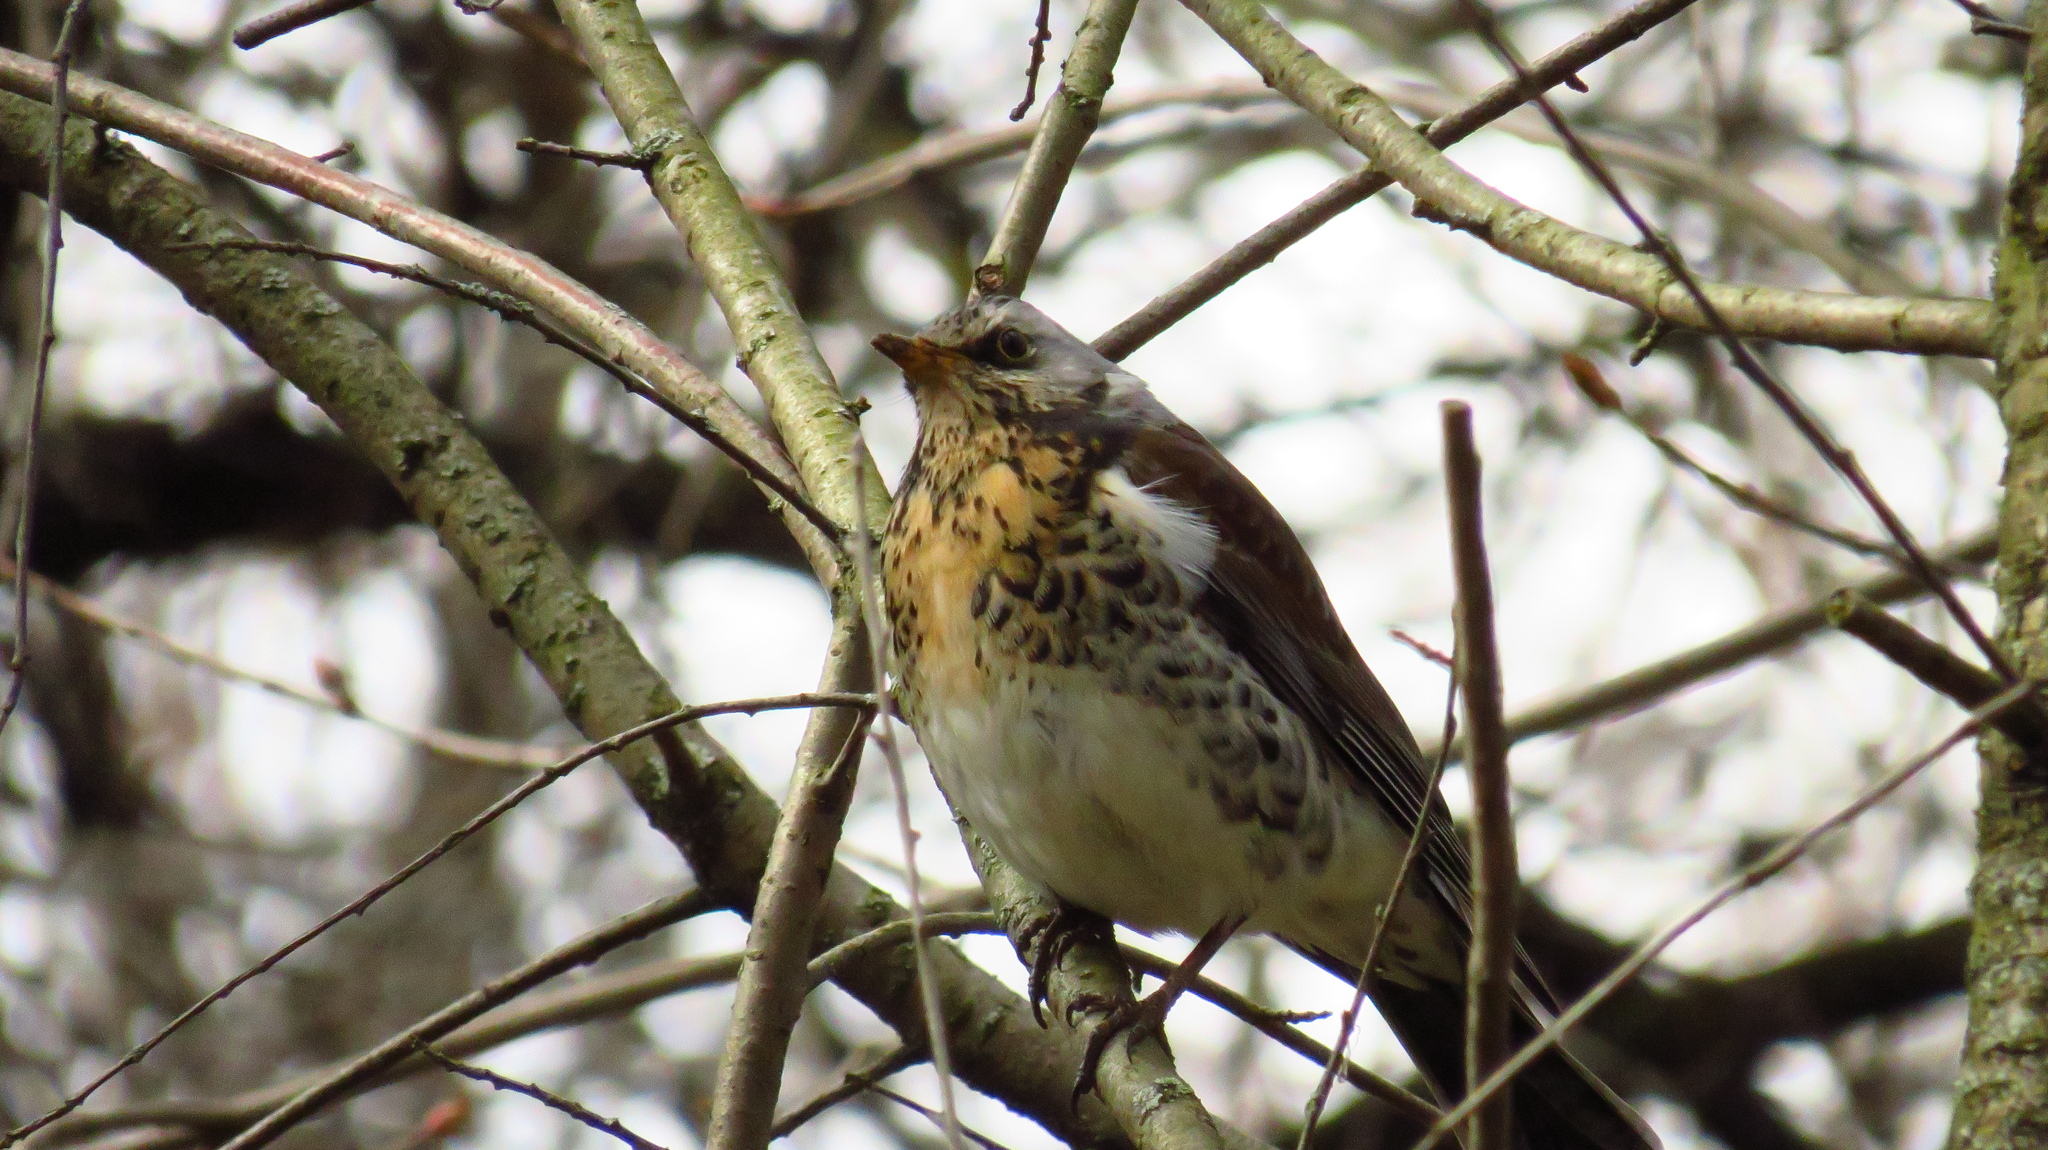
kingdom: Animalia
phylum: Chordata
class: Aves
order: Passeriformes
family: Turdidae
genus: Turdus
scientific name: Turdus pilaris
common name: Fieldfare
